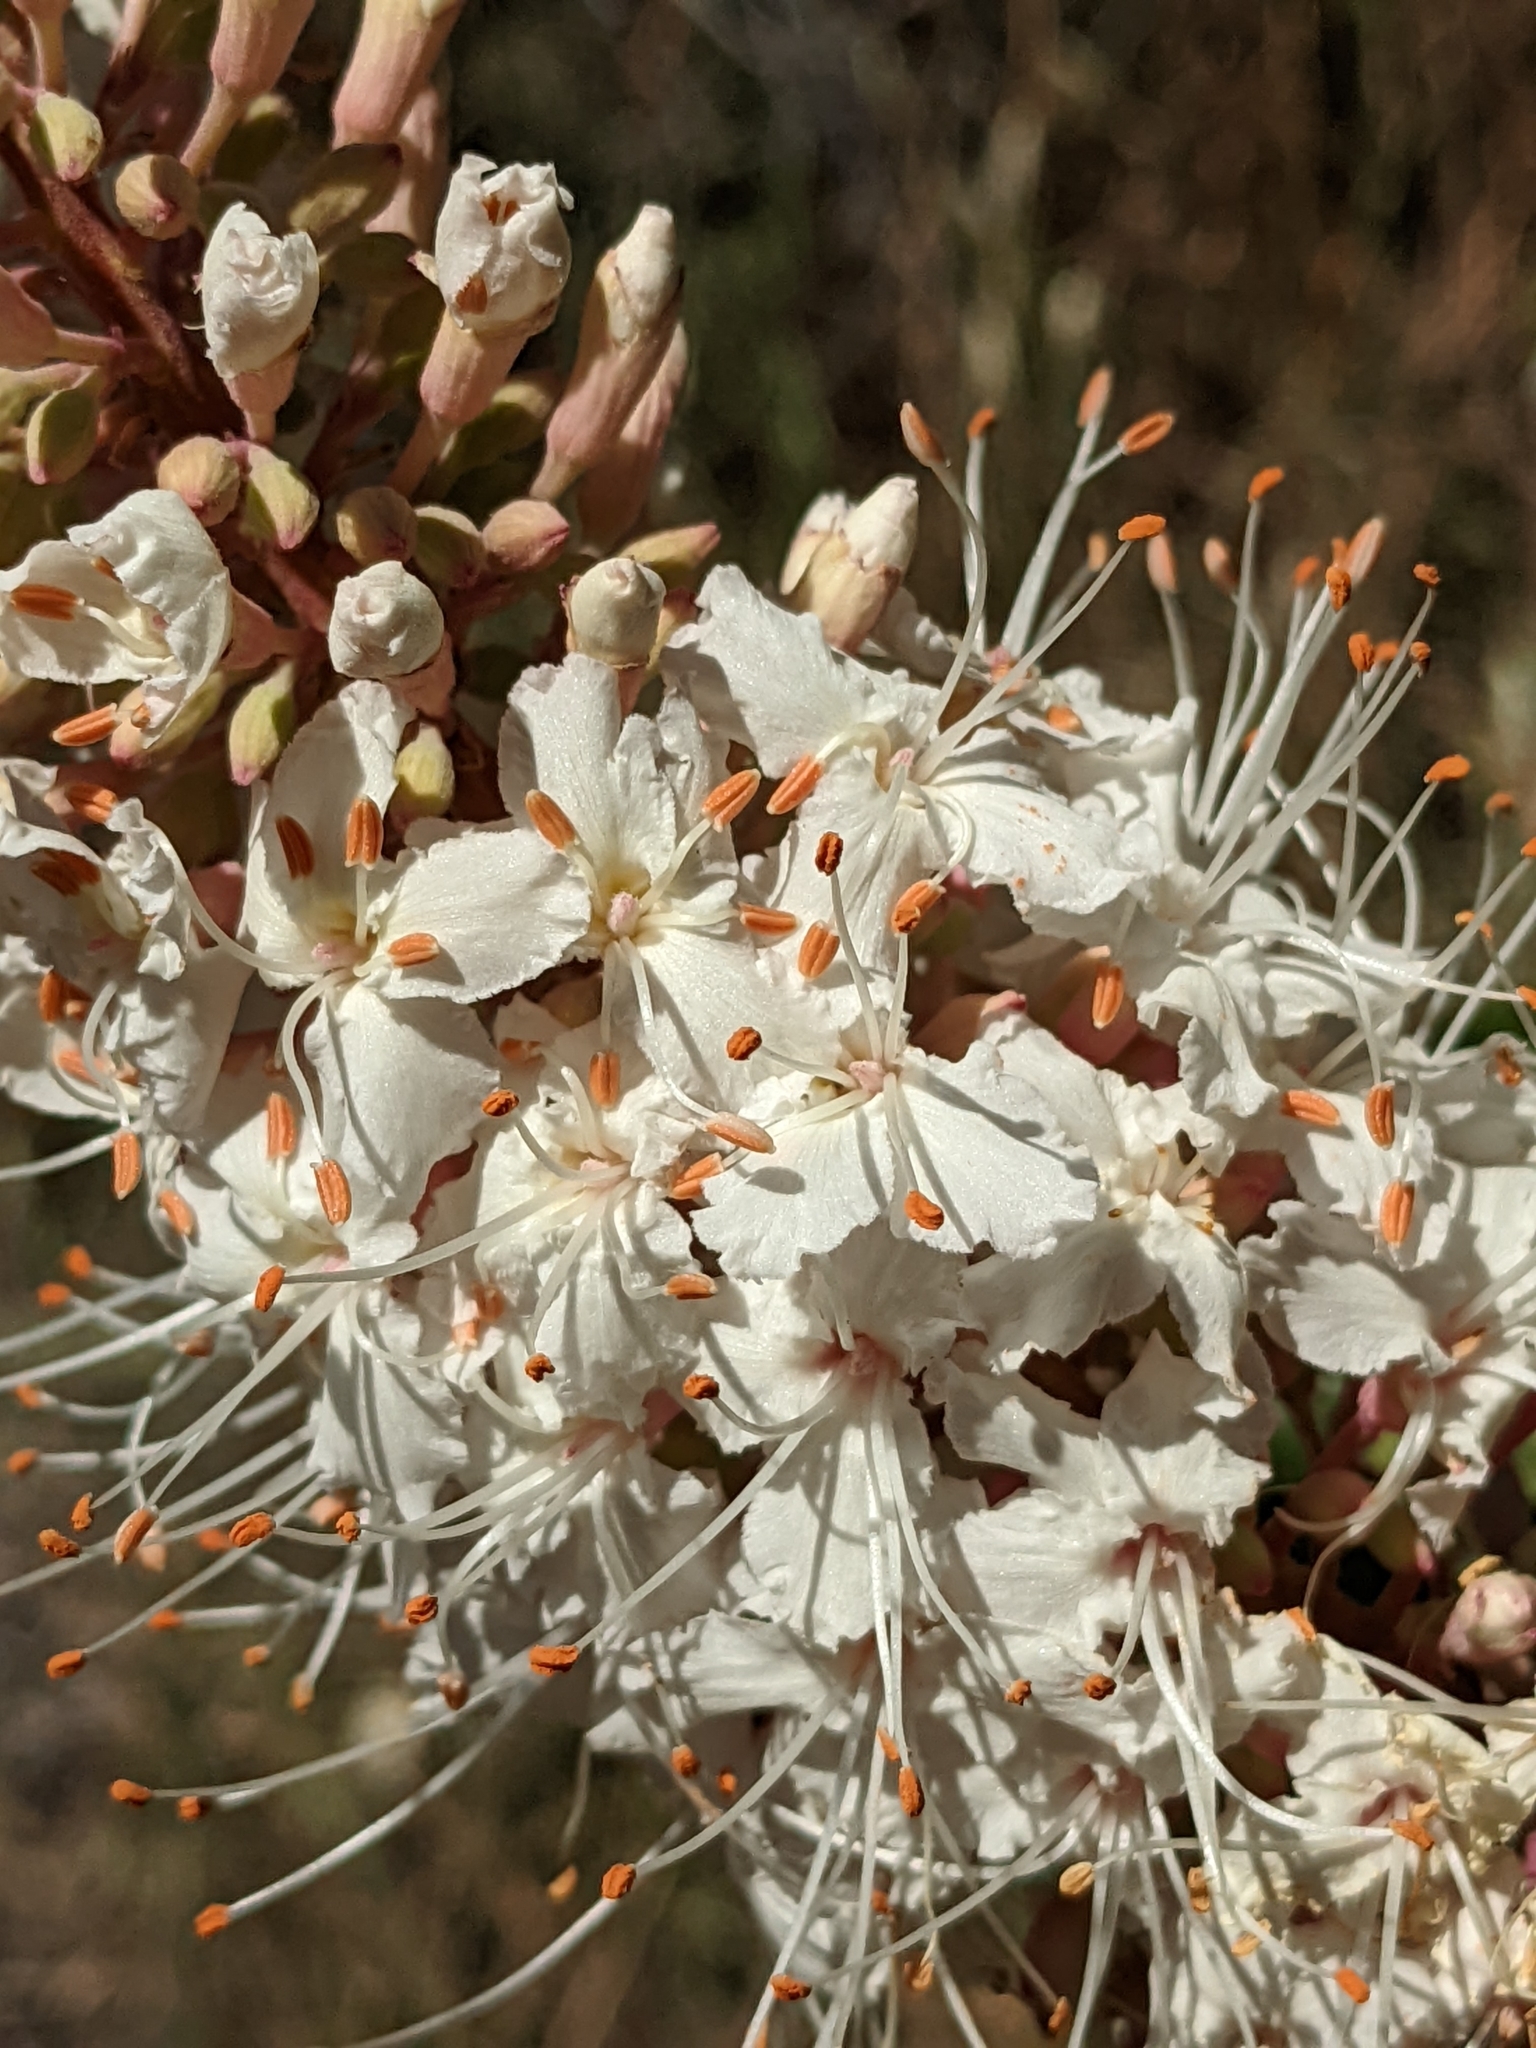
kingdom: Plantae
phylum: Tracheophyta
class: Magnoliopsida
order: Sapindales
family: Sapindaceae
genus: Aesculus
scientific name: Aesculus californica
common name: California buckeye
